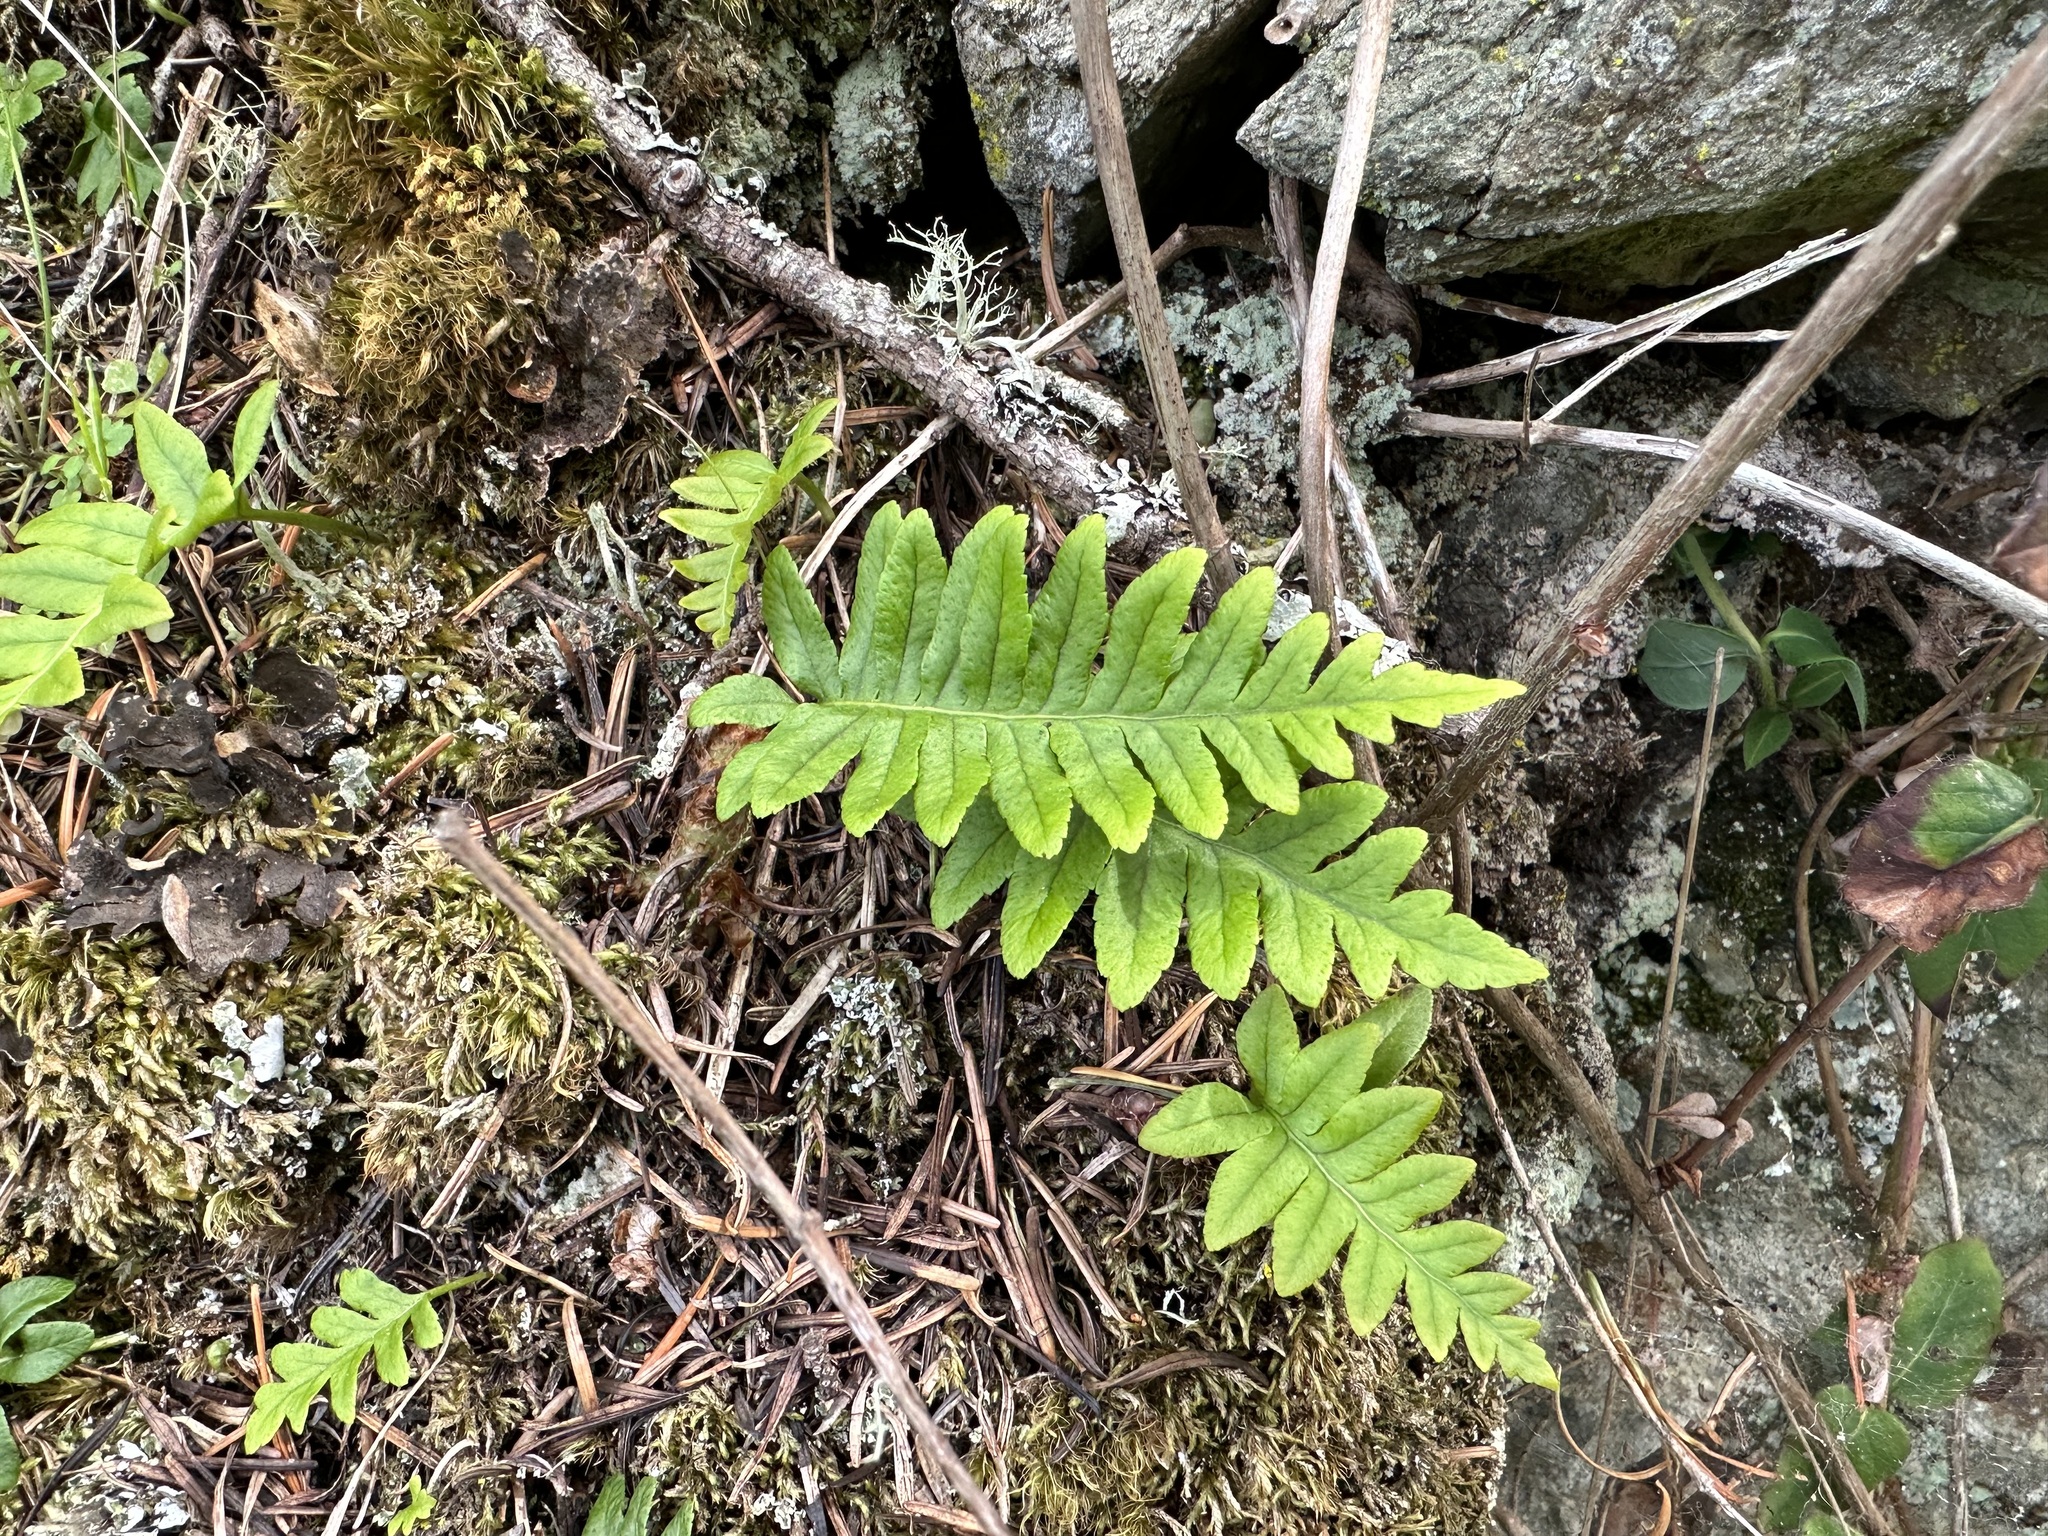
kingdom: Plantae
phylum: Tracheophyta
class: Polypodiopsida
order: Polypodiales
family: Polypodiaceae
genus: Polypodium
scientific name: Polypodium glycyrrhiza
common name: Licorice fern
